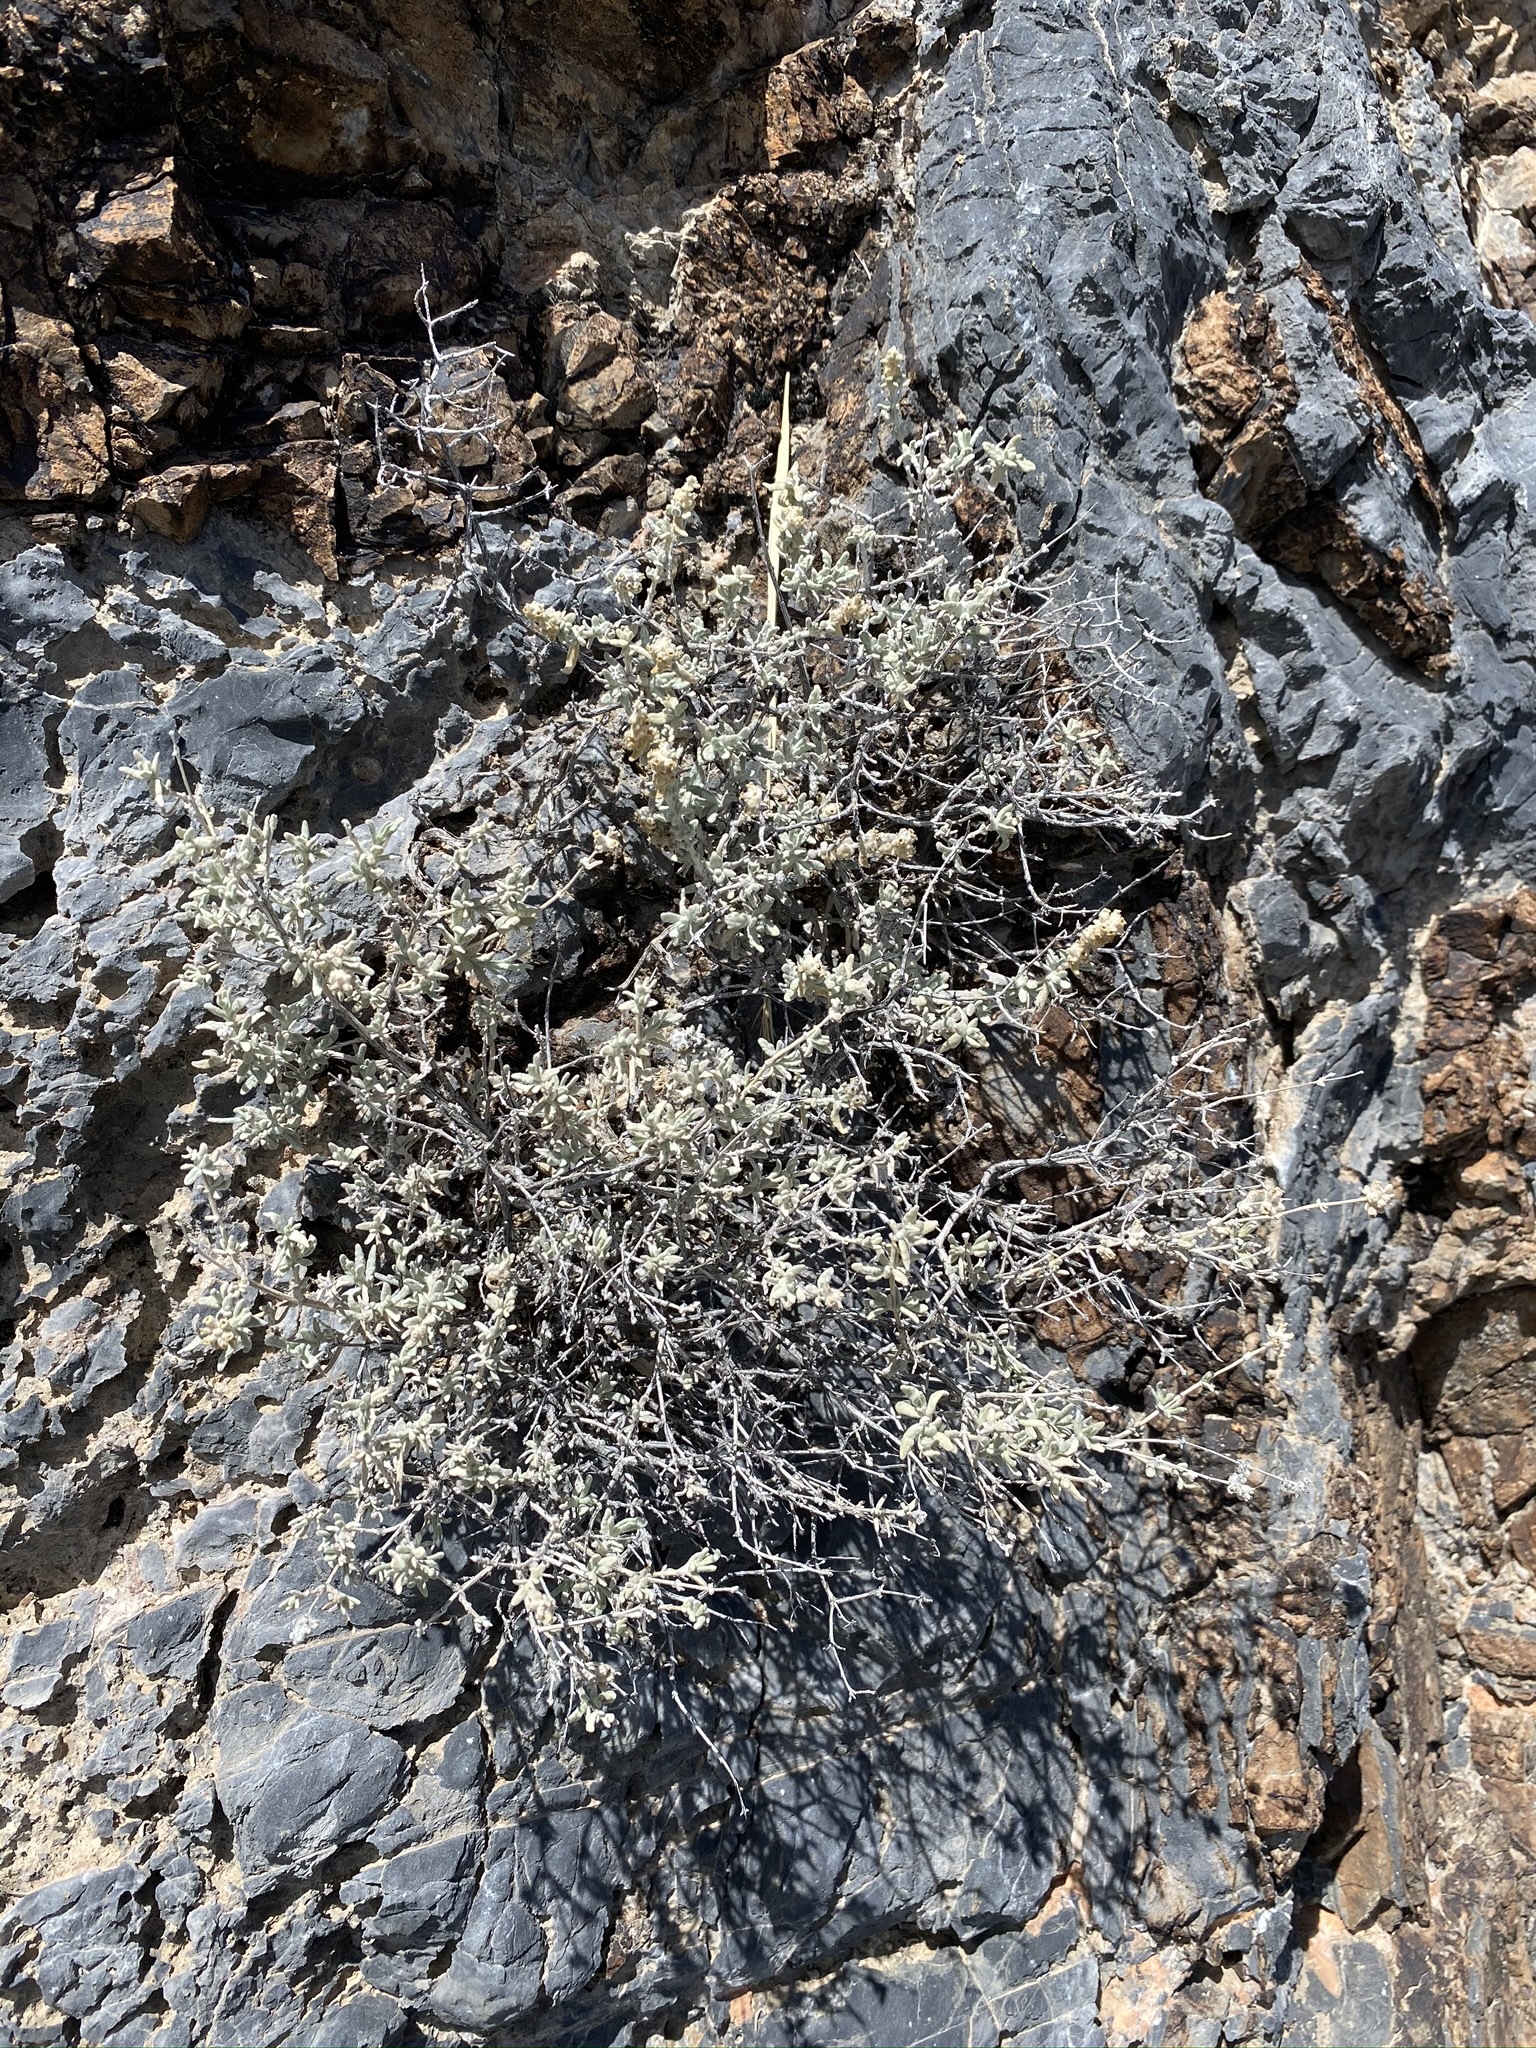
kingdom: Plantae
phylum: Tracheophyta
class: Magnoliopsida
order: Lamiales
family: Scrophulariaceae
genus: Buddleja
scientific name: Buddleja utahensis
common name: Utah butterfly-bush
